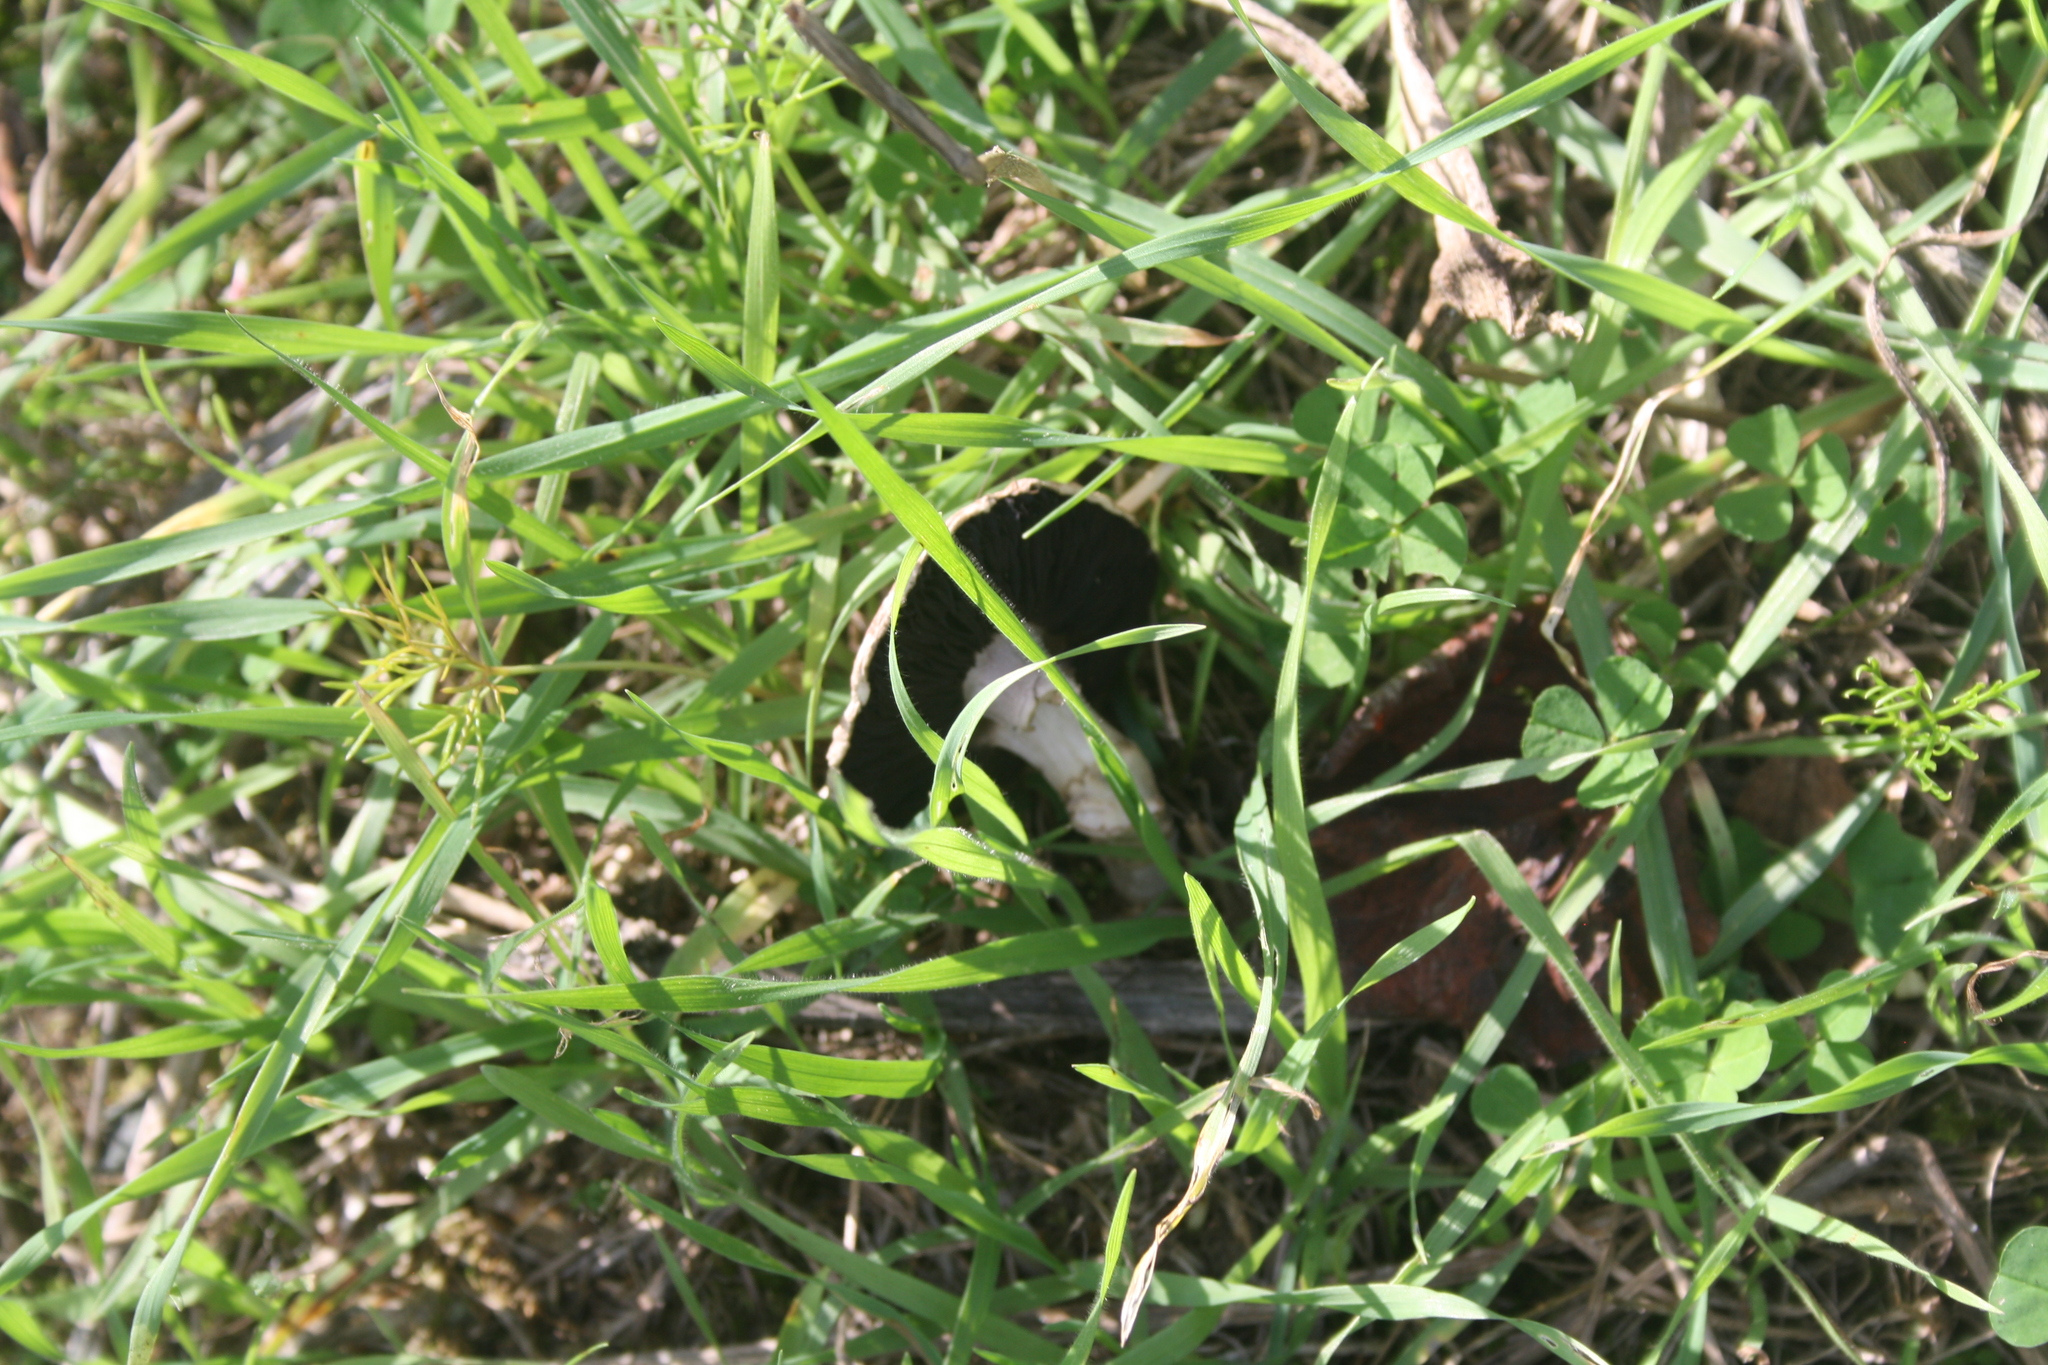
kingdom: Fungi
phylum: Basidiomycota
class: Agaricomycetes
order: Agaricales
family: Agaricaceae
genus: Agaricus
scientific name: Agaricus
